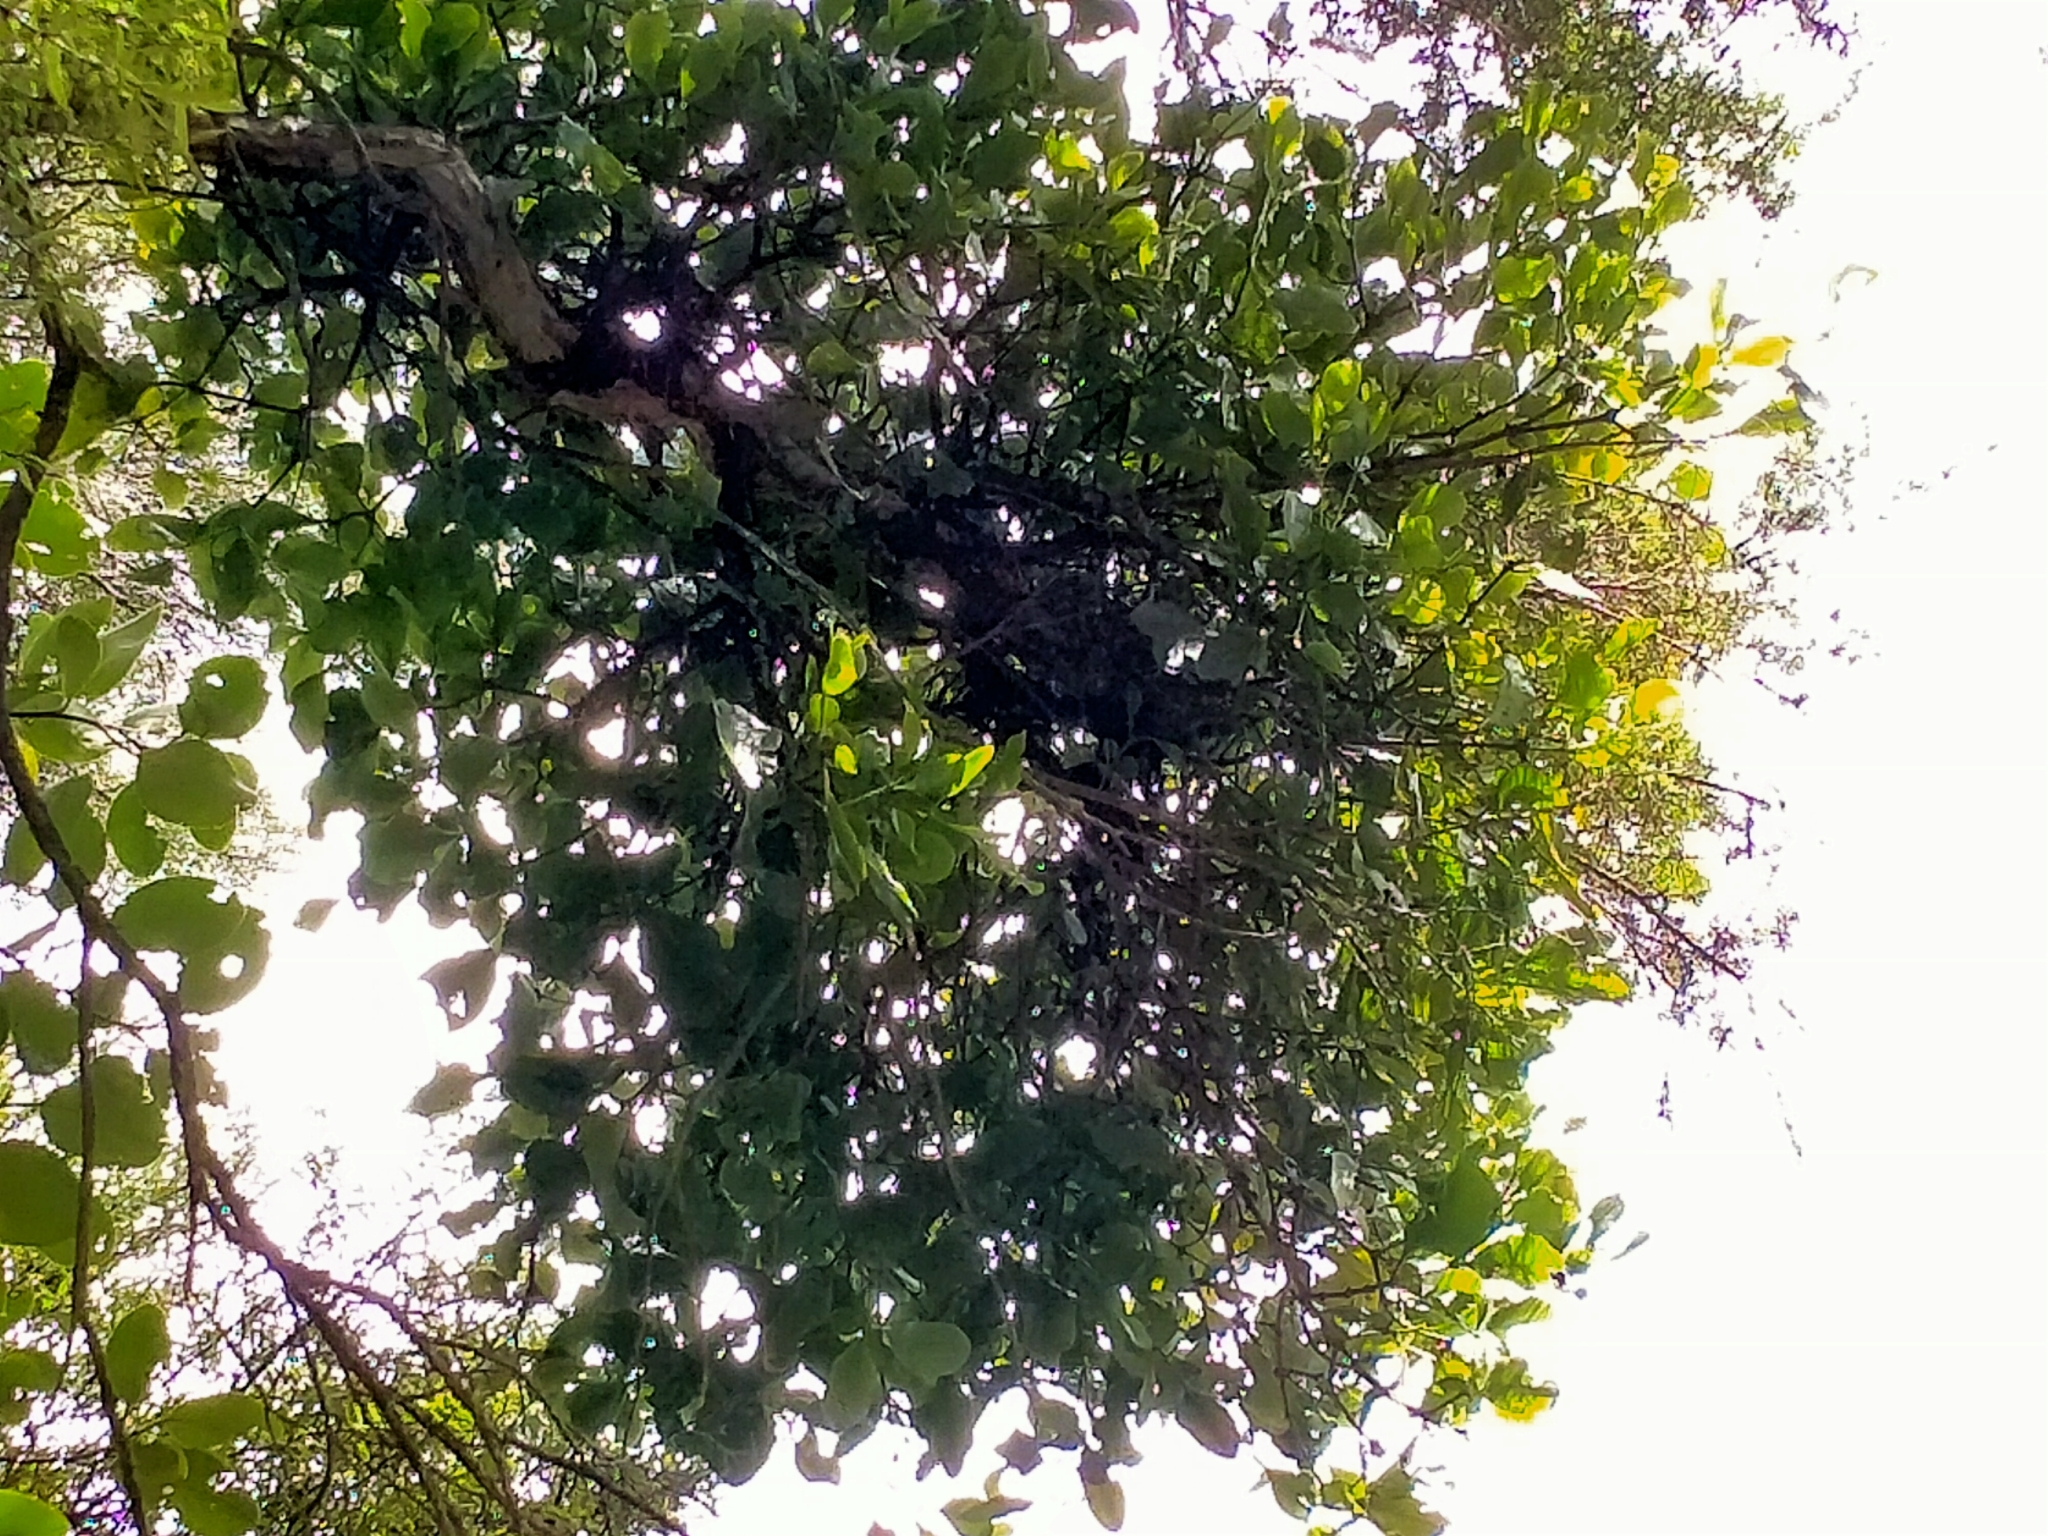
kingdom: Plantae
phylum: Tracheophyta
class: Magnoliopsida
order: Santalales
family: Loranthaceae
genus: Ileostylus
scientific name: Ileostylus micranthus
